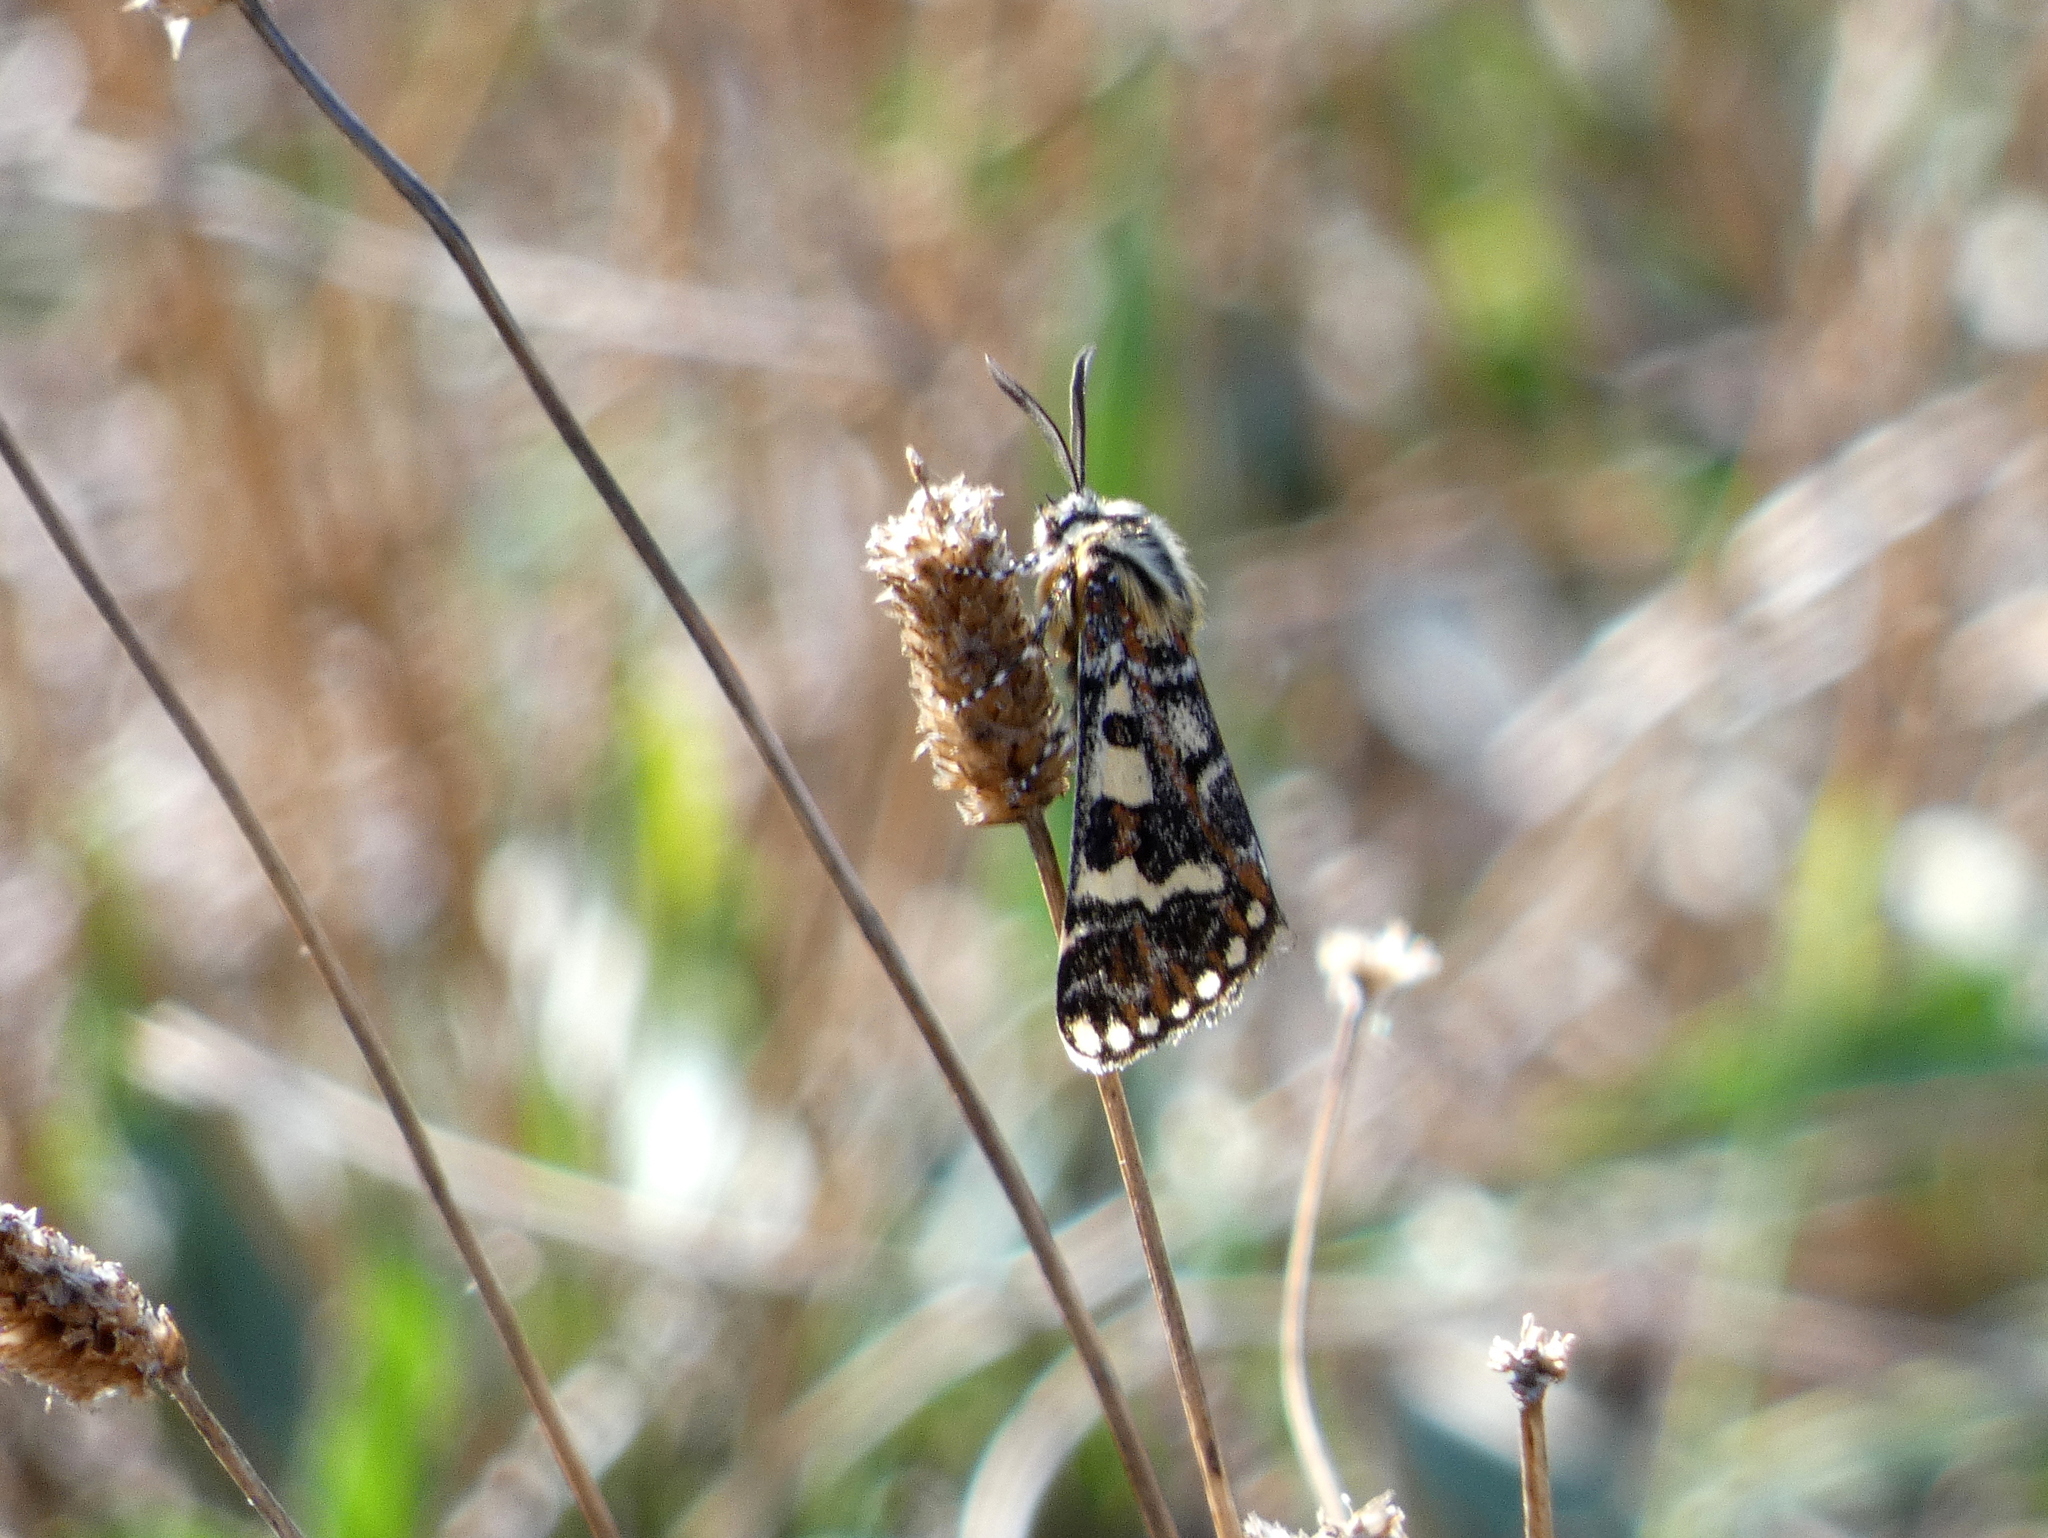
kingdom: Animalia
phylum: Arthropoda
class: Insecta
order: Lepidoptera
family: Noctuidae
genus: Apina
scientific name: Apina callisto
